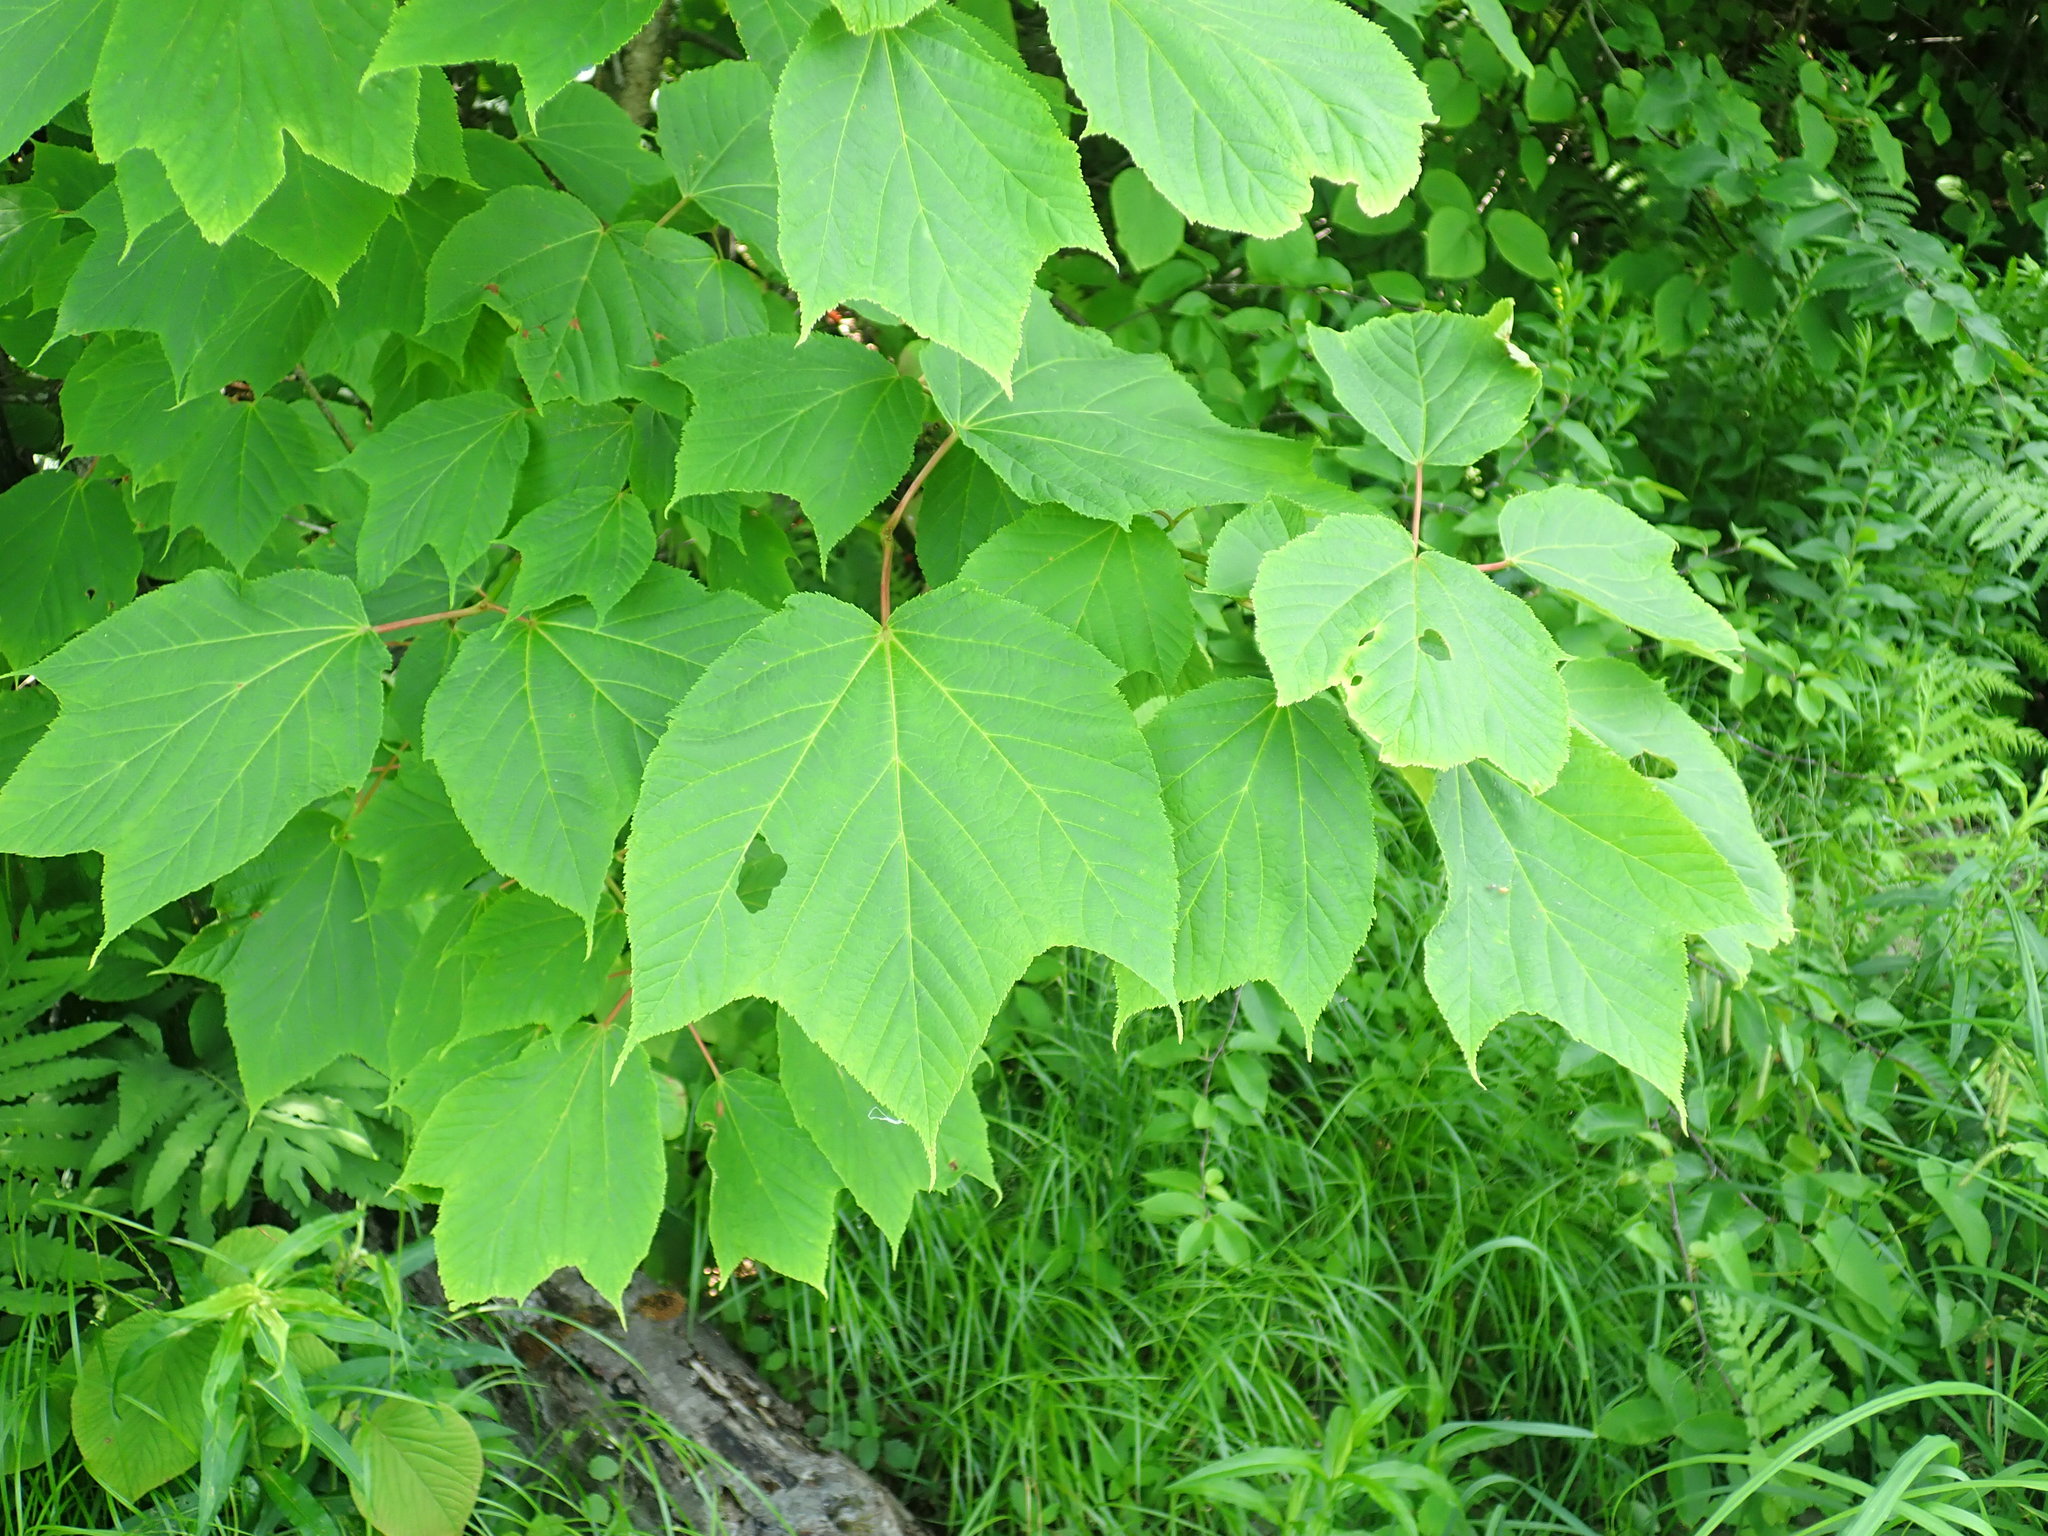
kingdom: Plantae
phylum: Tracheophyta
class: Magnoliopsida
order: Sapindales
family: Sapindaceae
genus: Acer
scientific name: Acer pensylvanicum
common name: Moosewood
